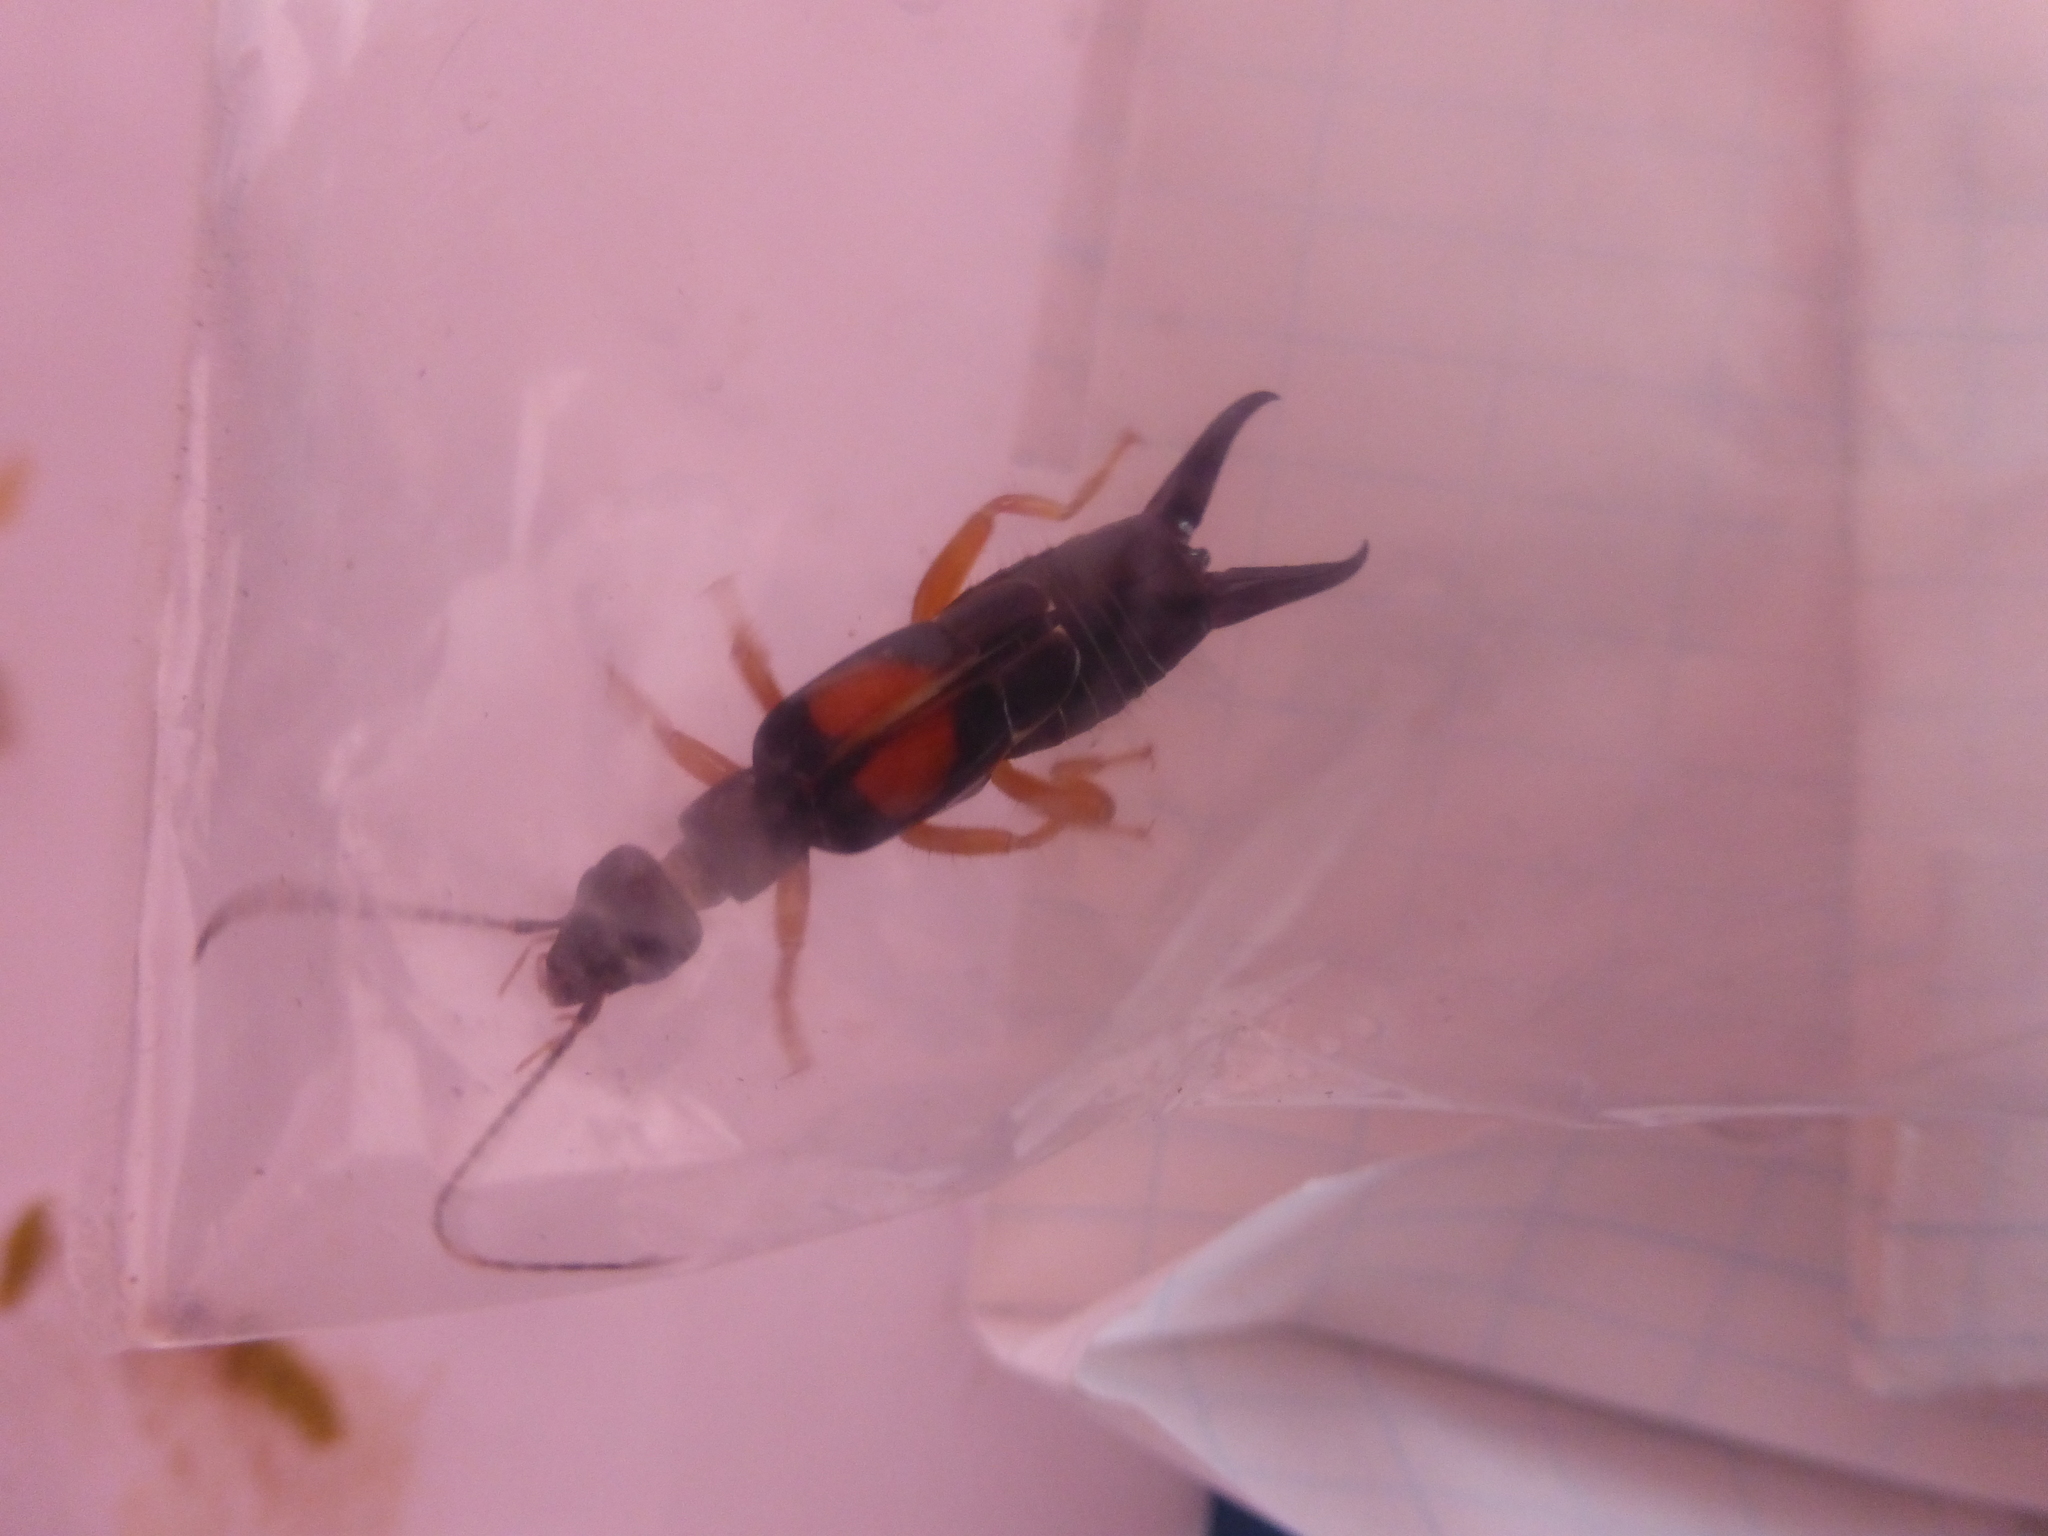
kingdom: Animalia
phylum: Arthropoda
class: Insecta
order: Dermaptera
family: Anisolabididae
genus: Carcinophora
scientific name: Carcinophora americana
